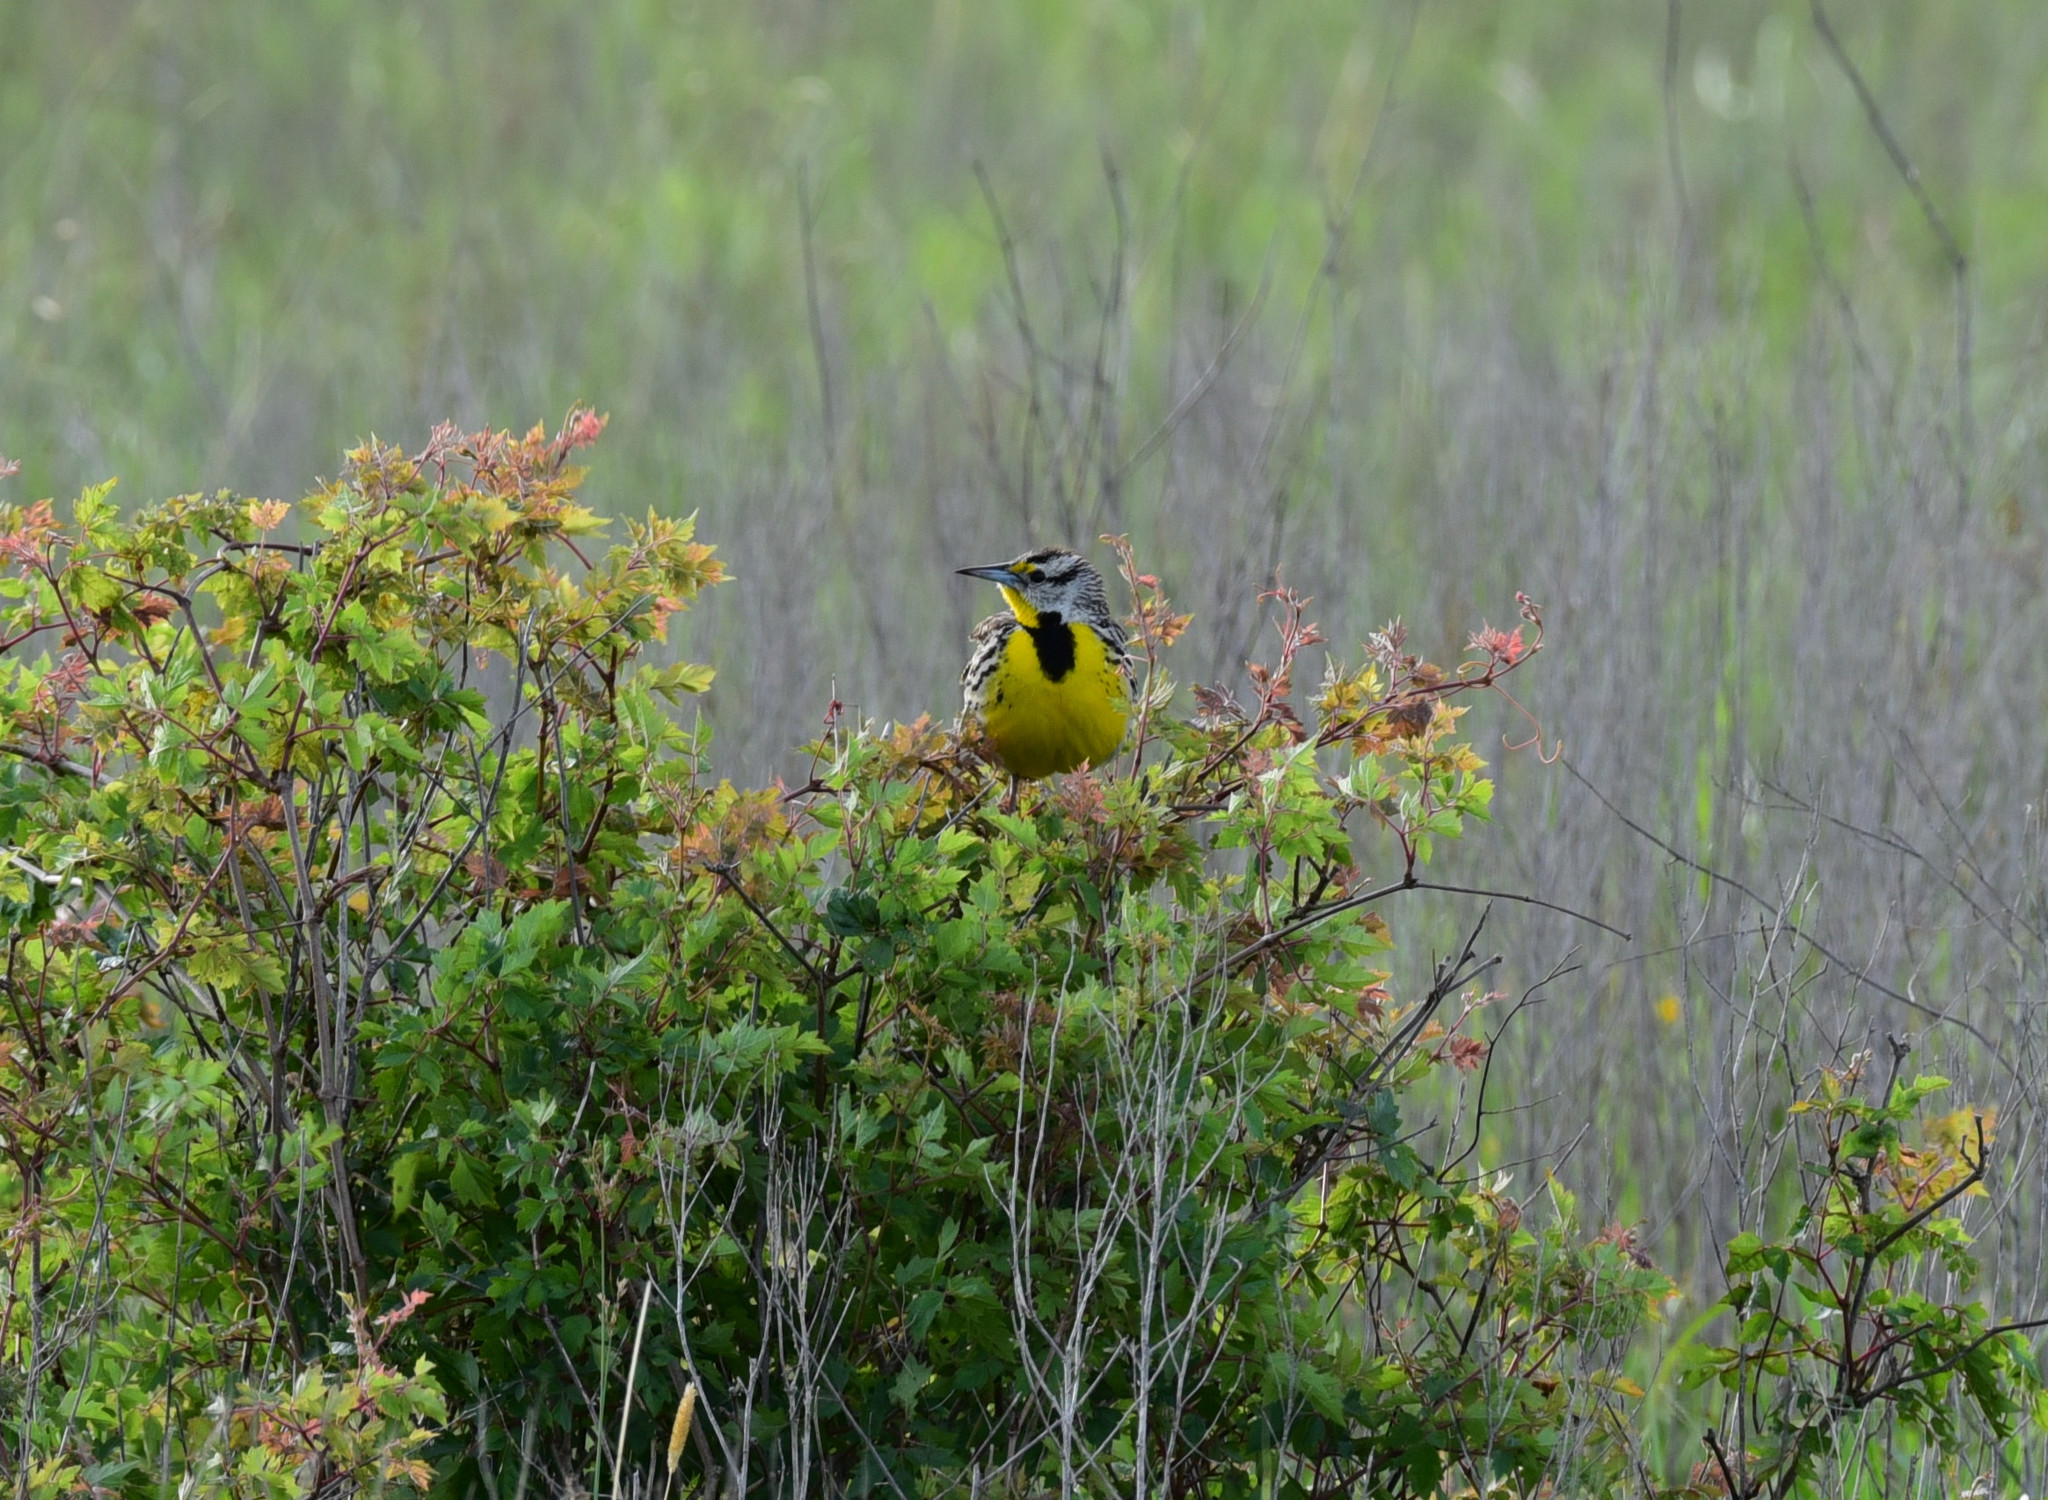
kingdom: Animalia
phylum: Chordata
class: Aves
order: Passeriformes
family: Icteridae
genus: Sturnella
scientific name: Sturnella magna
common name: Eastern meadowlark
